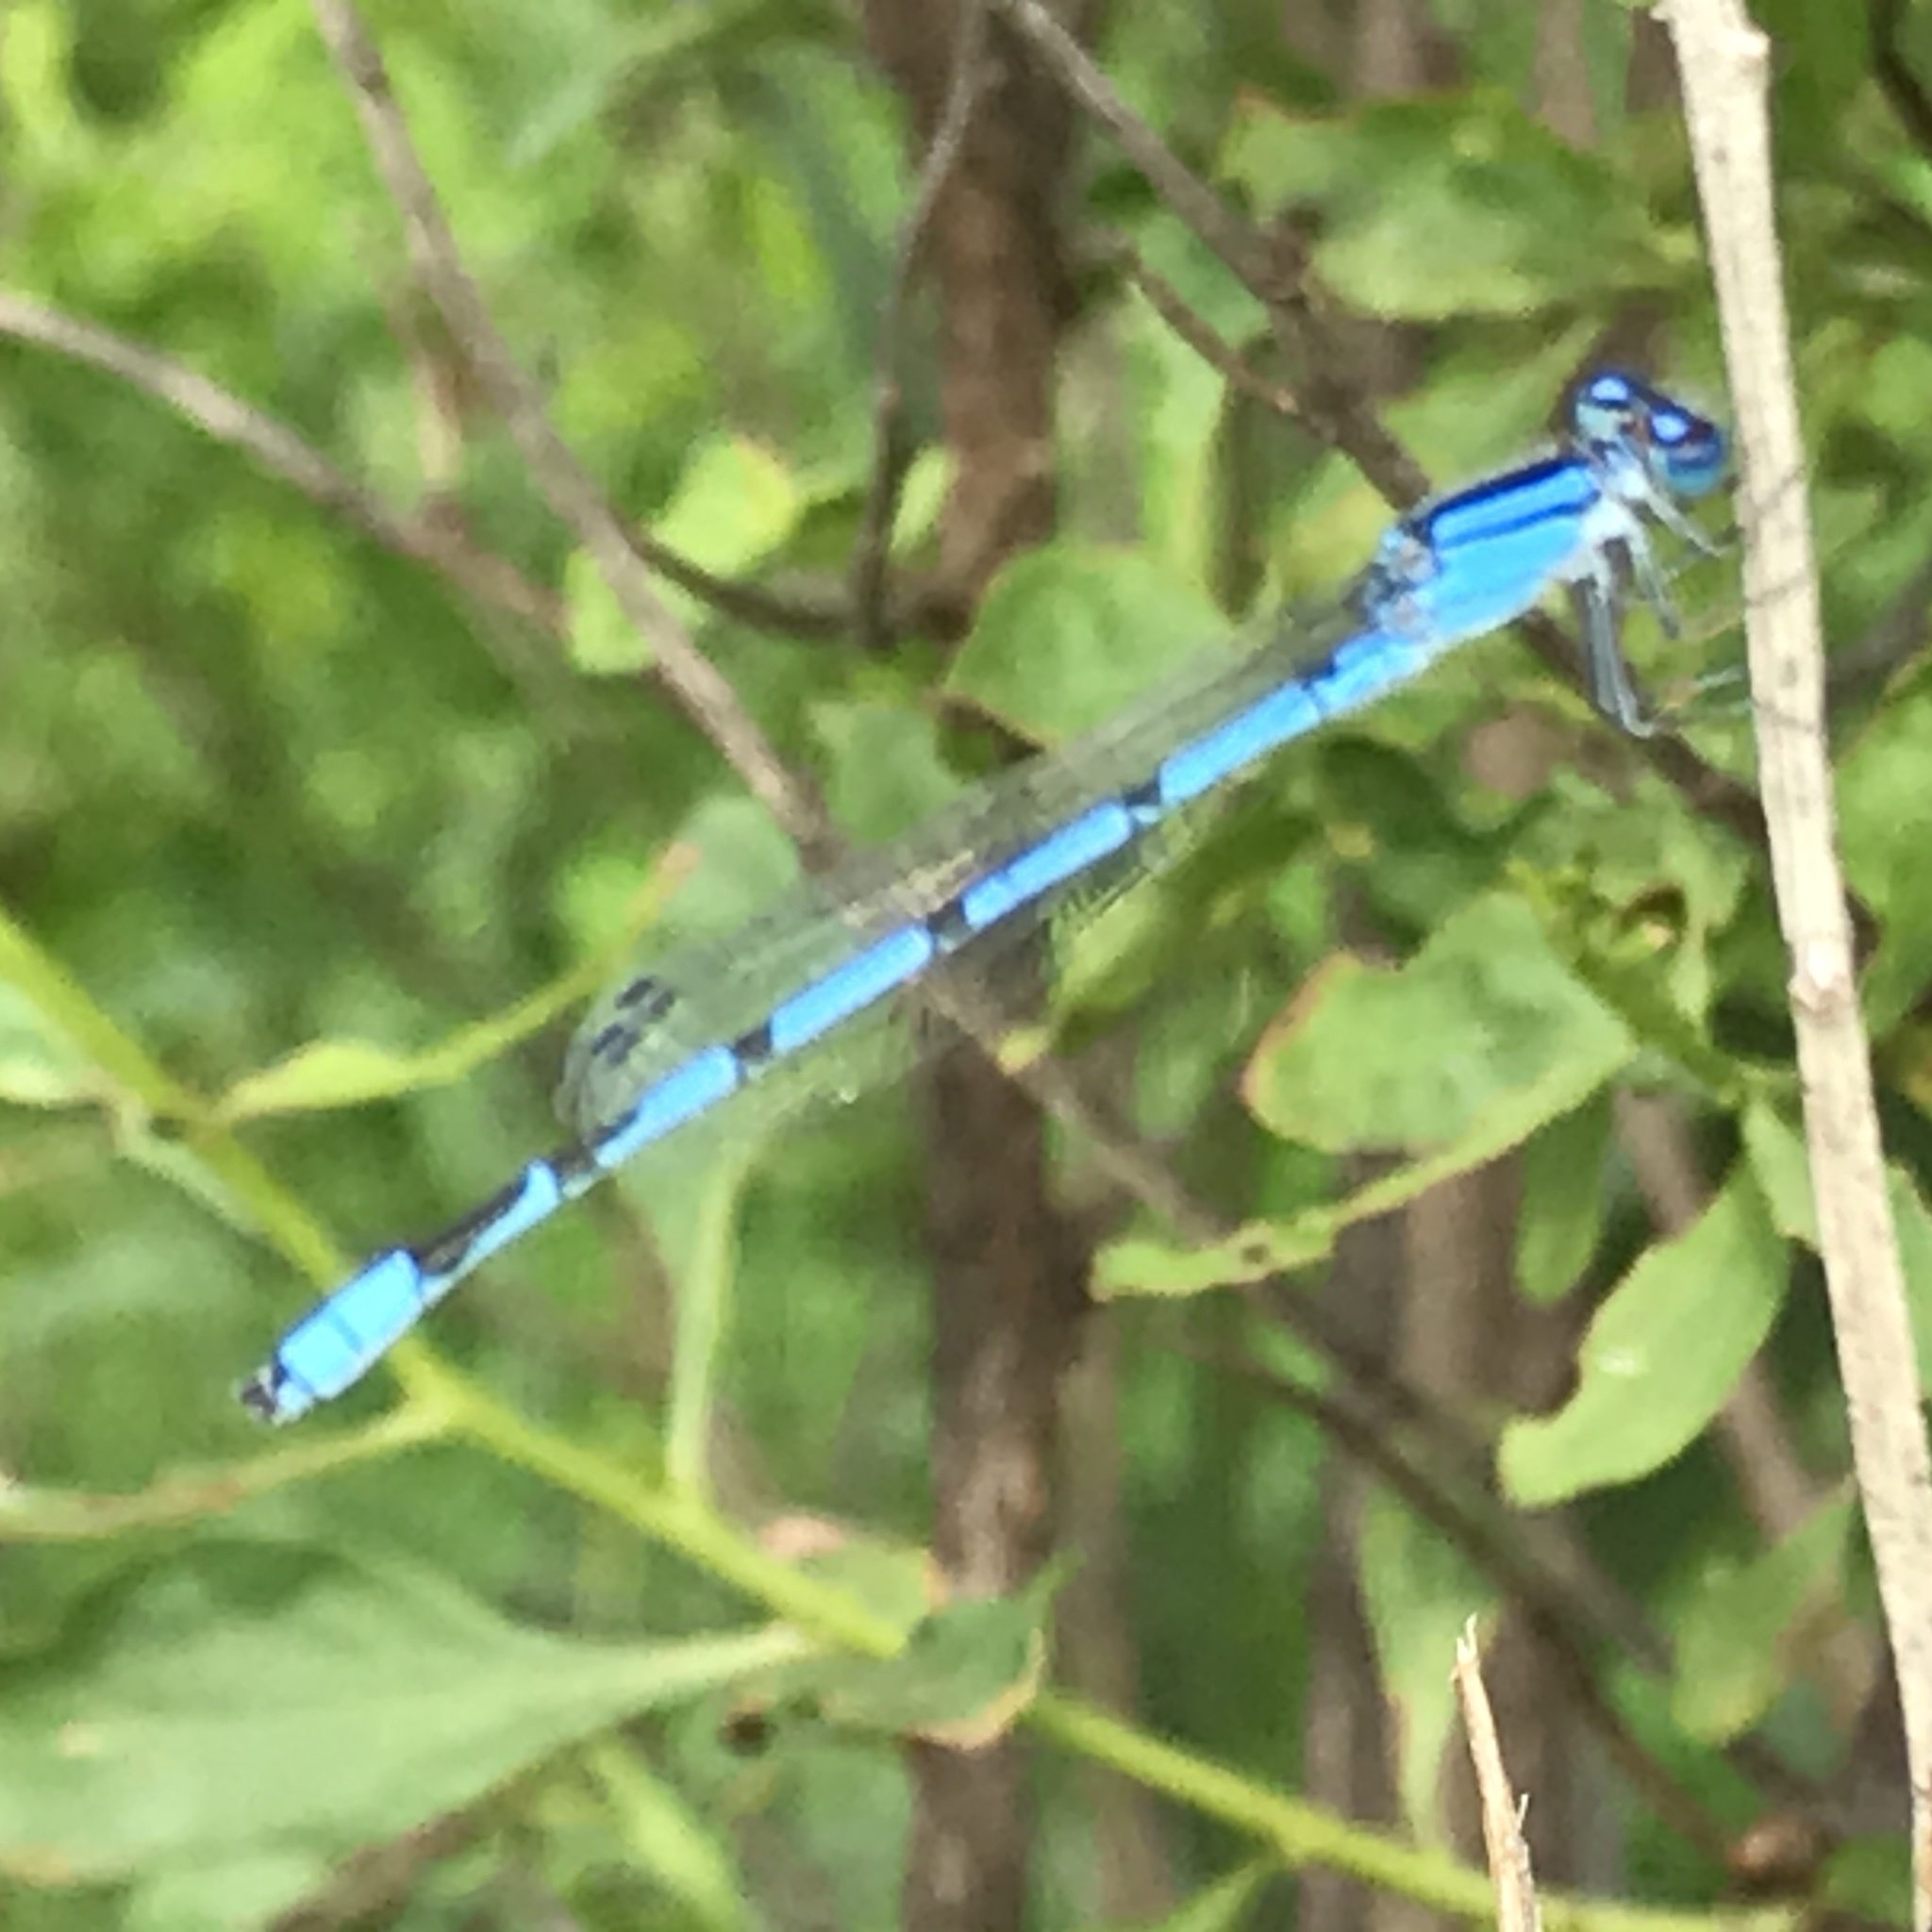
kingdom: Animalia
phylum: Arthropoda
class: Insecta
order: Odonata
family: Coenagrionidae
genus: Enallagma
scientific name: Enallagma civile
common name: Damselfly
